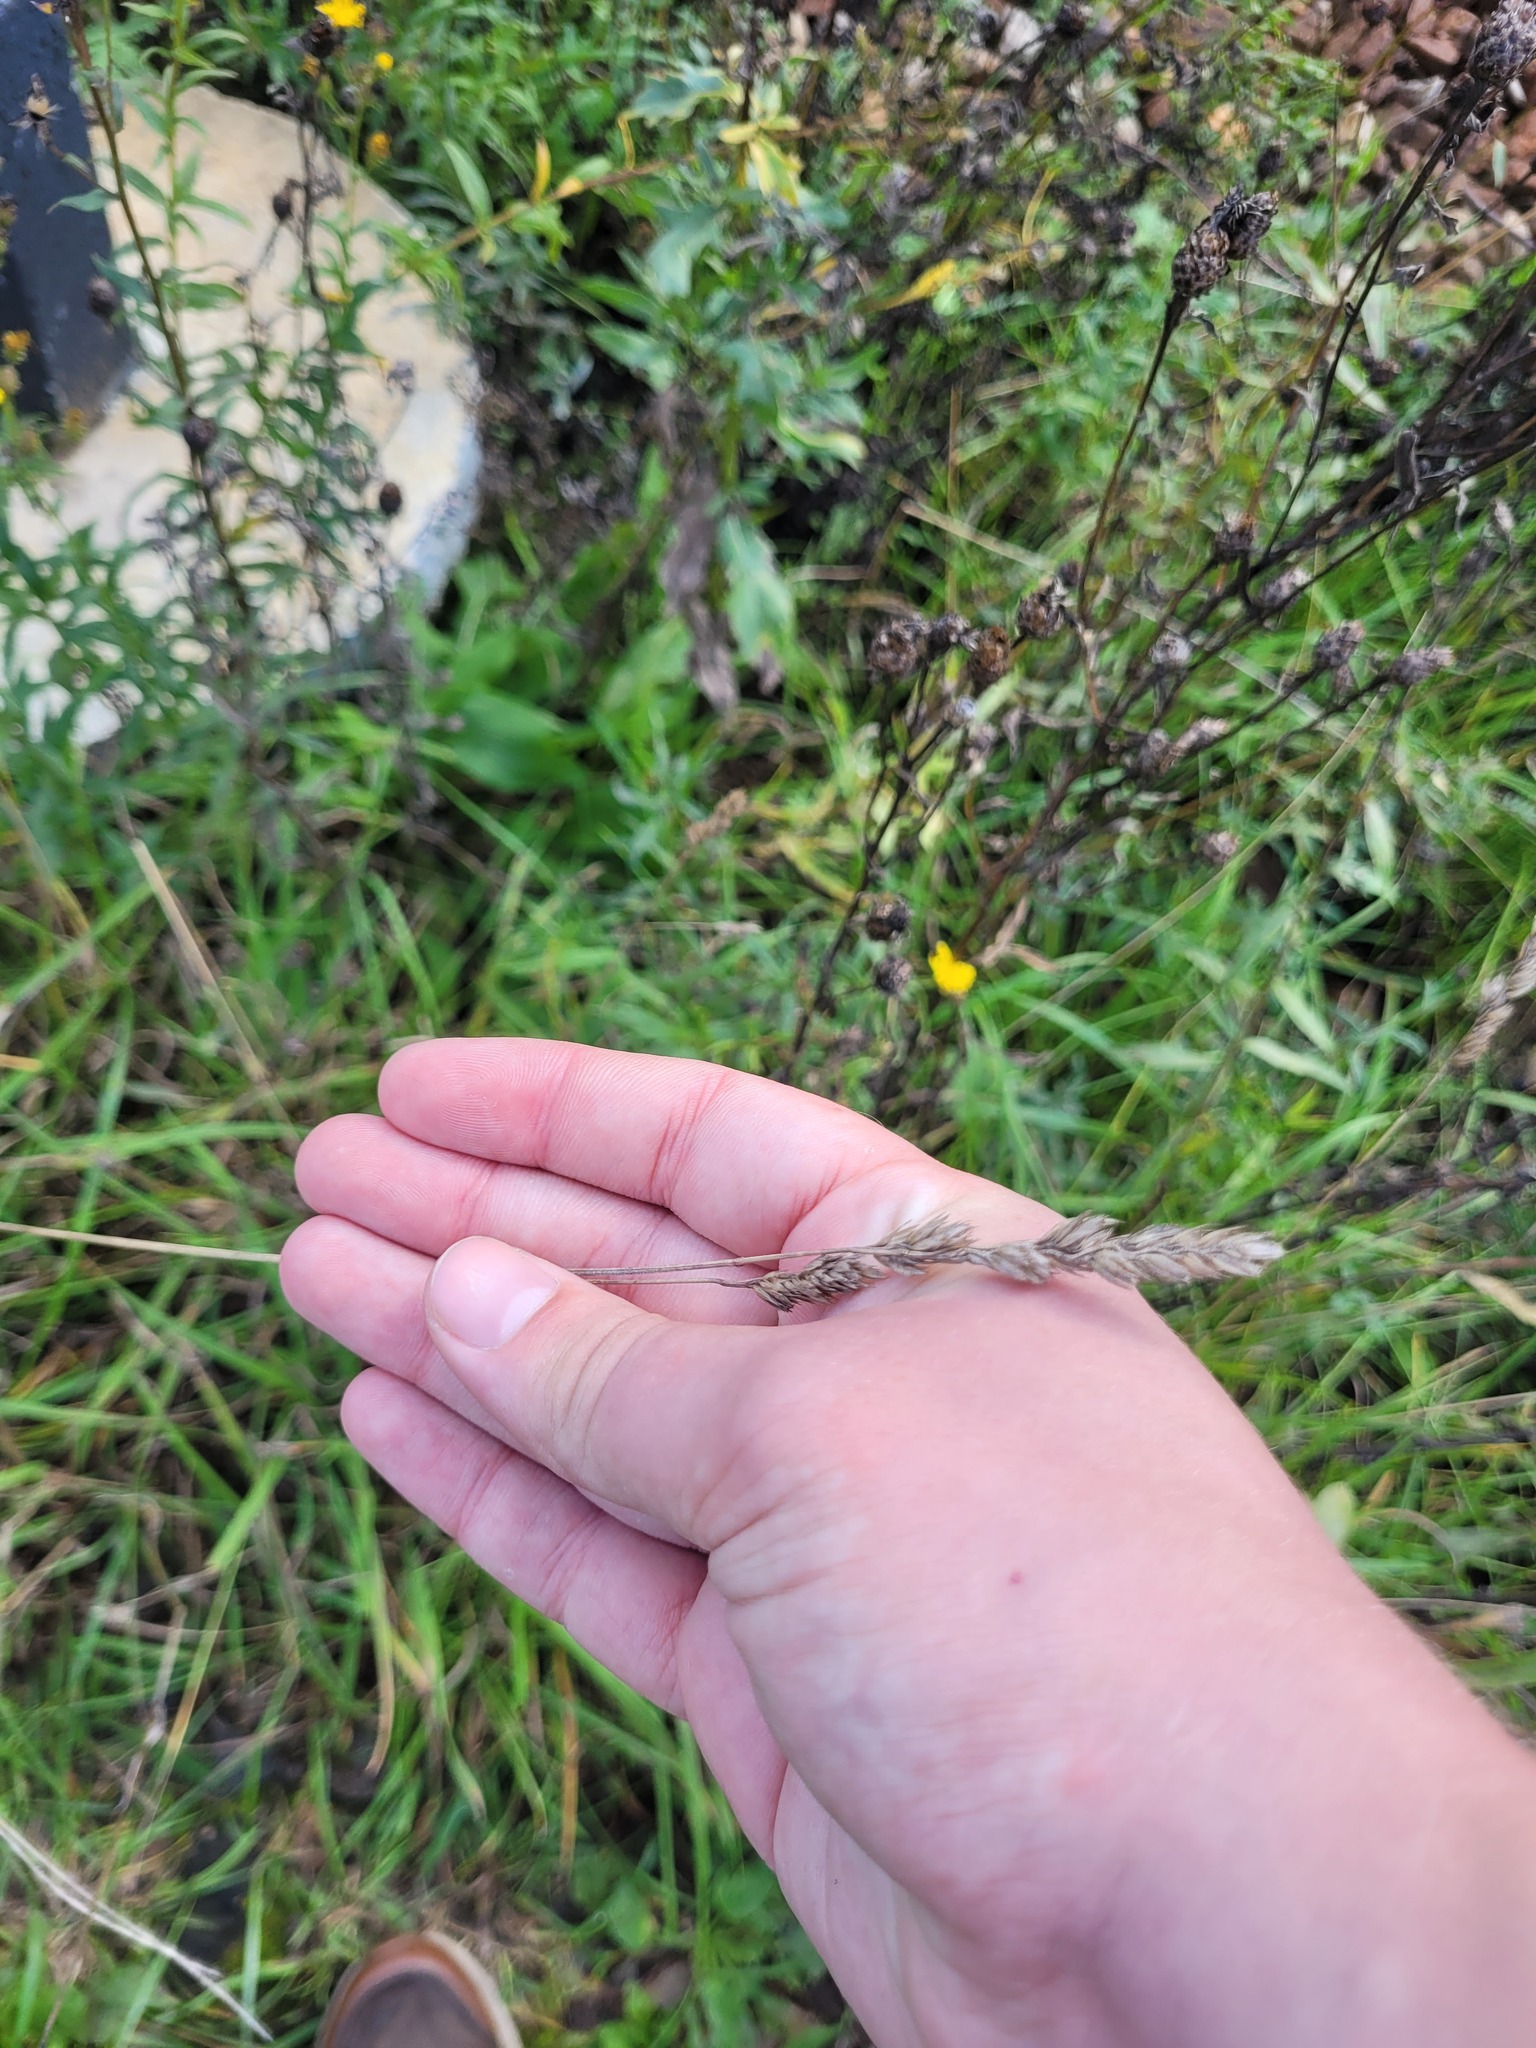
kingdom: Plantae
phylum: Tracheophyta
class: Liliopsida
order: Poales
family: Poaceae
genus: Dactylis
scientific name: Dactylis glomerata
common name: Orchardgrass
